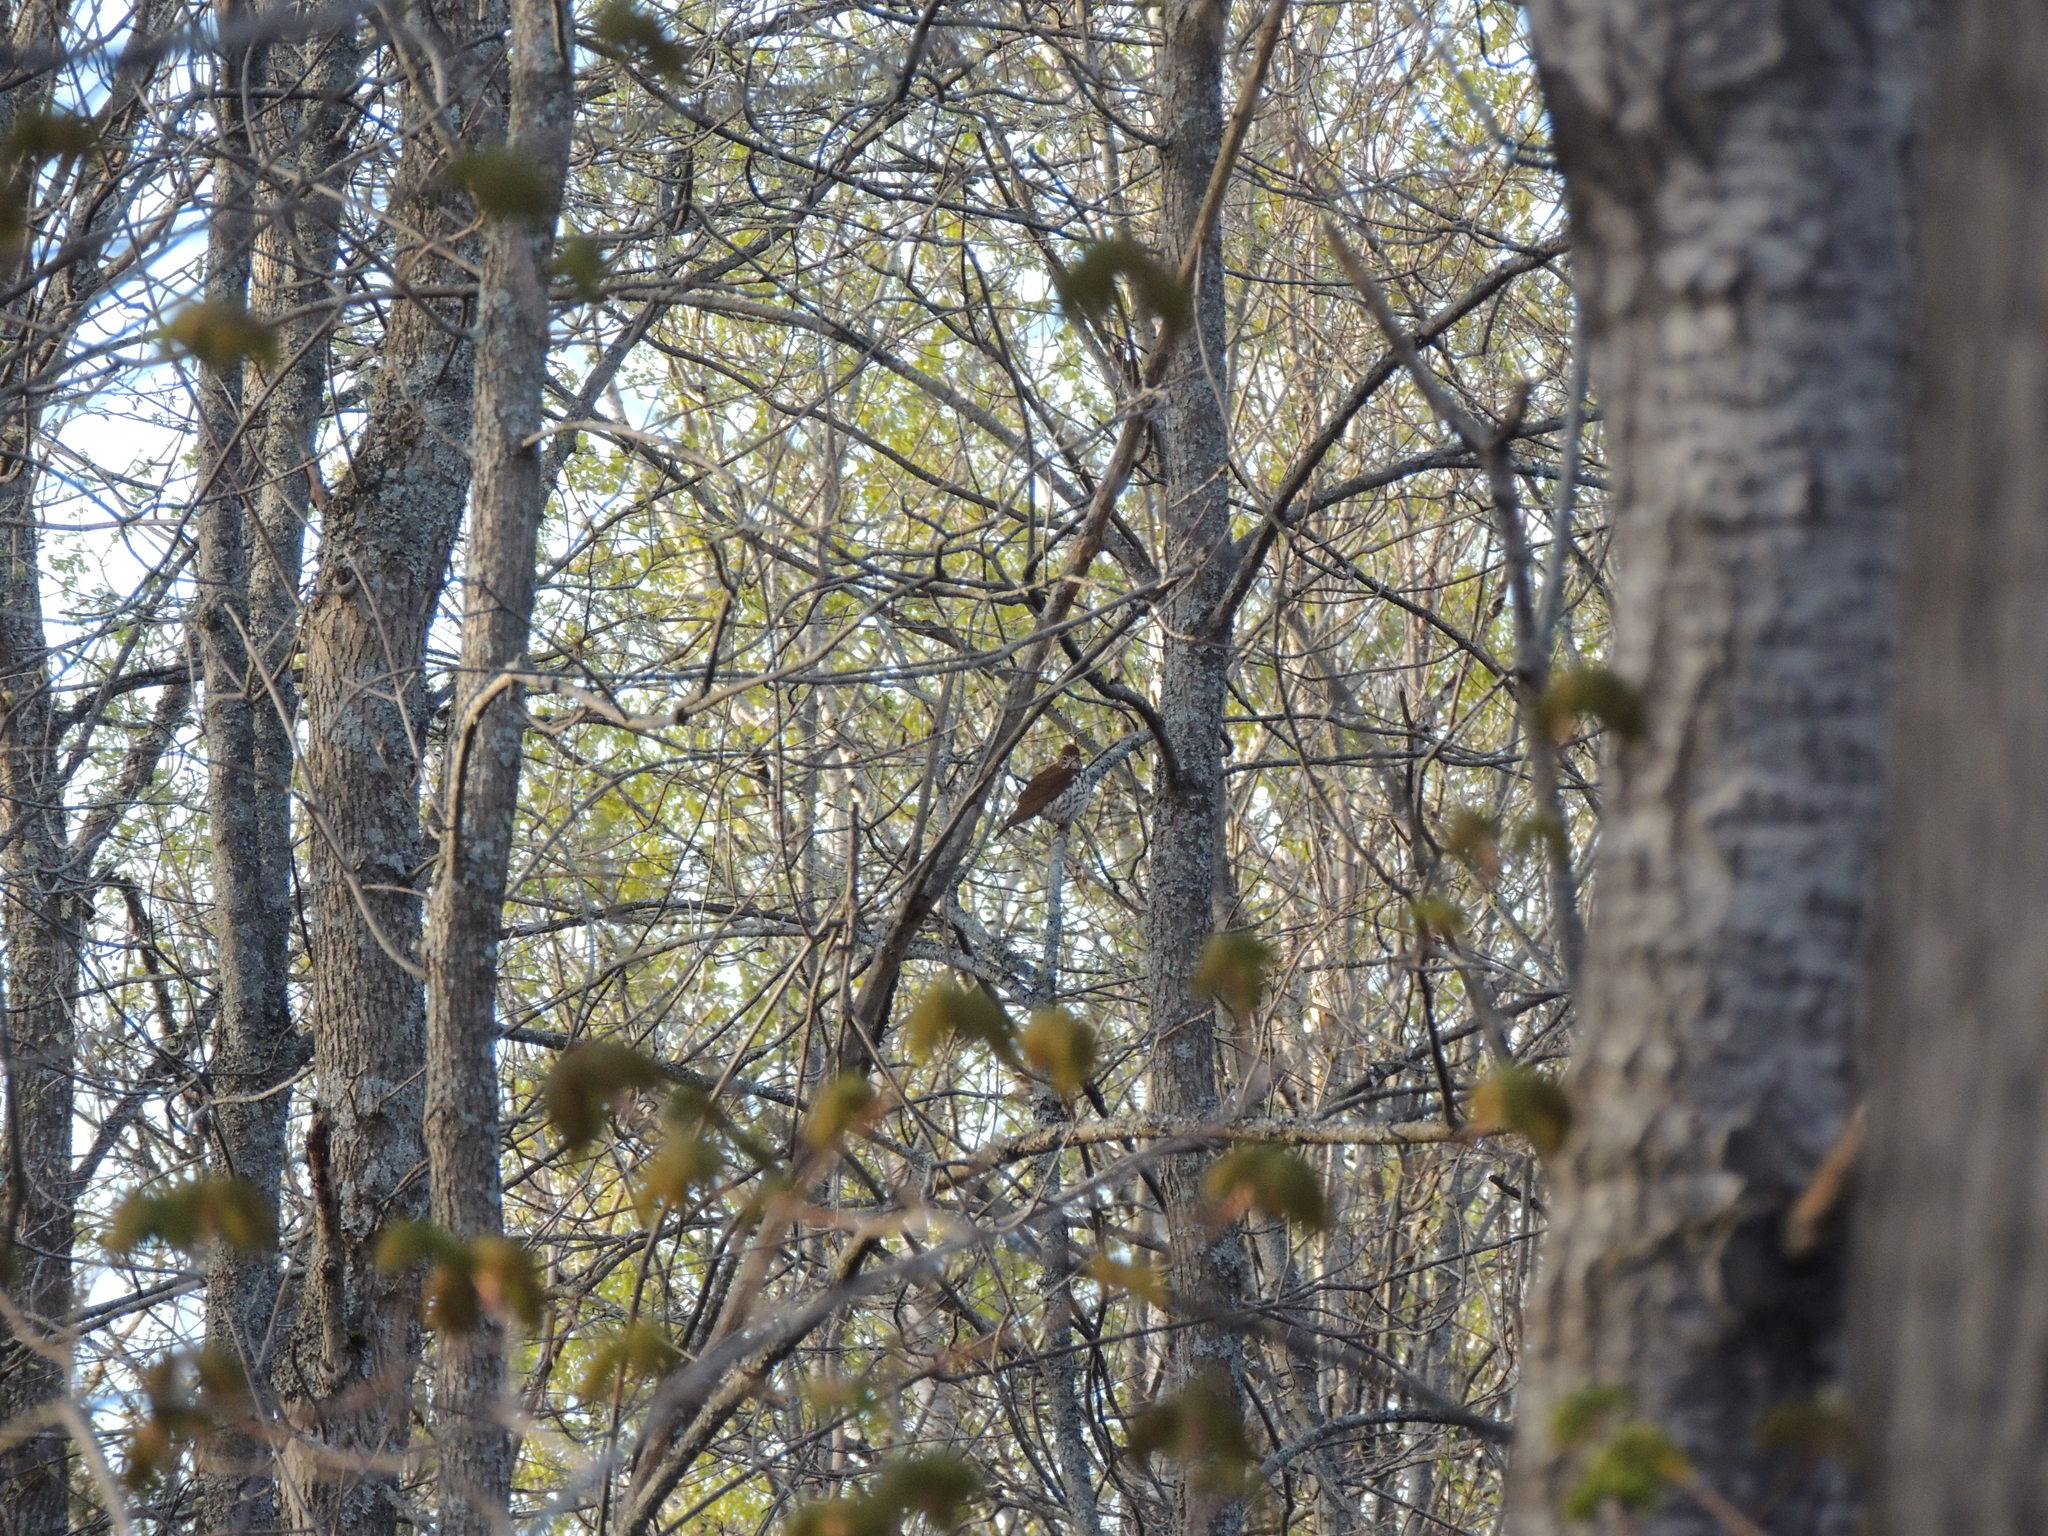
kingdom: Animalia
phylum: Chordata
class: Aves
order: Passeriformes
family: Turdidae
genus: Hylocichla
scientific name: Hylocichla mustelina
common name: Wood thrush
